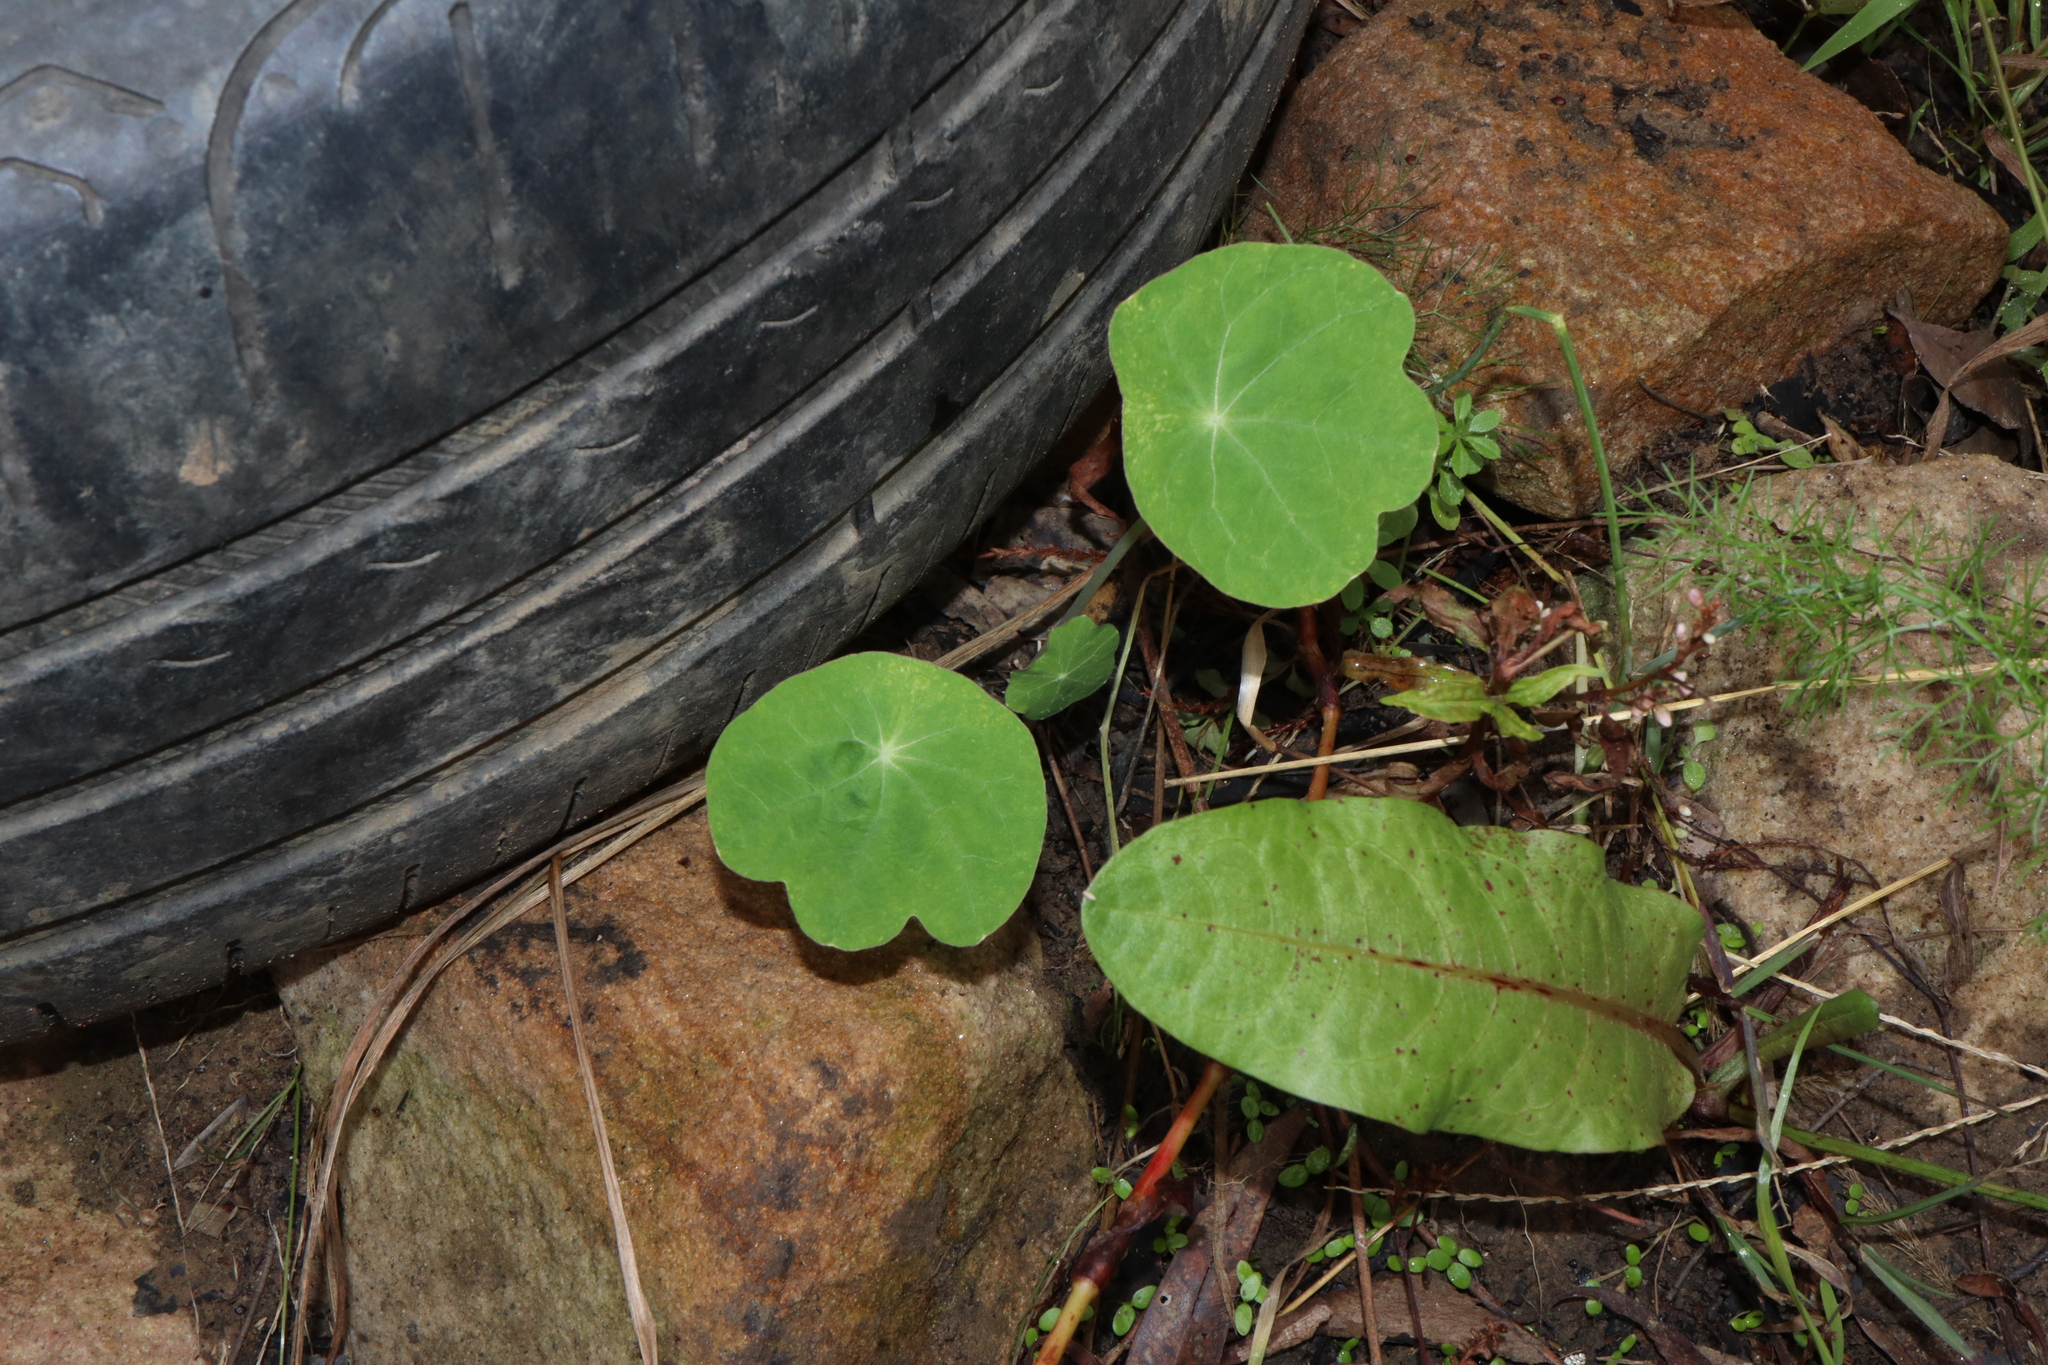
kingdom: Plantae
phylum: Tracheophyta
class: Magnoliopsida
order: Brassicales
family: Tropaeolaceae
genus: Tropaeolum
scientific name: Tropaeolum majus
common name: Nasturtium
